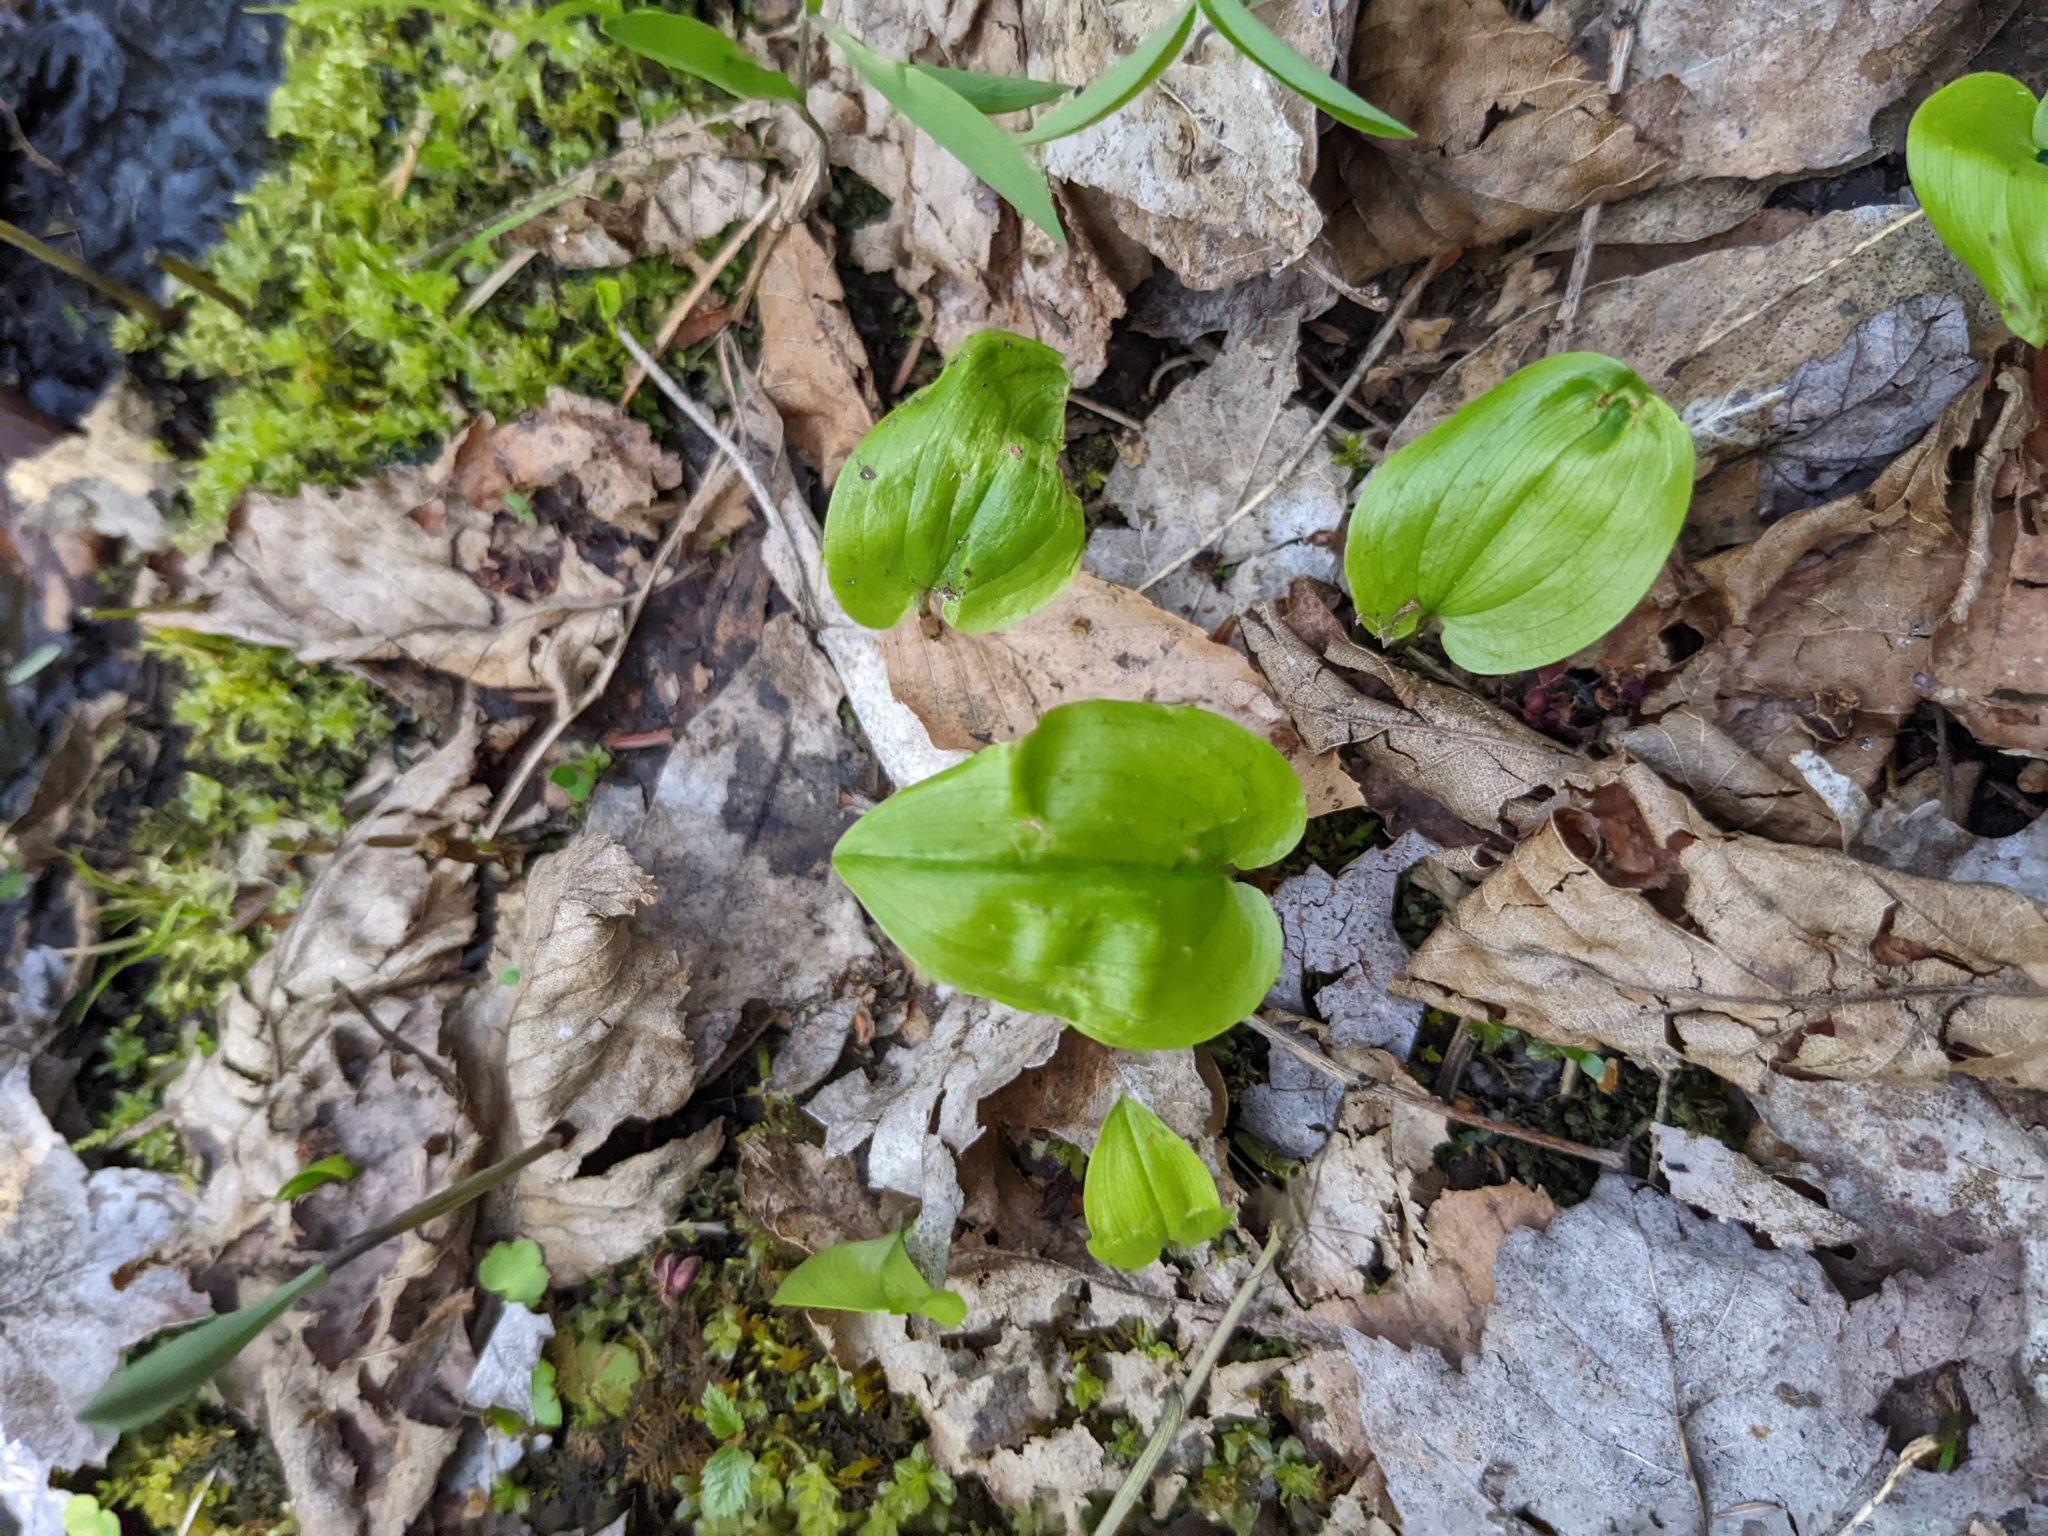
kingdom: Plantae
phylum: Tracheophyta
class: Liliopsida
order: Asparagales
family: Asparagaceae
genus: Maianthemum
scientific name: Maianthemum canadense
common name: False lily-of-the-valley
